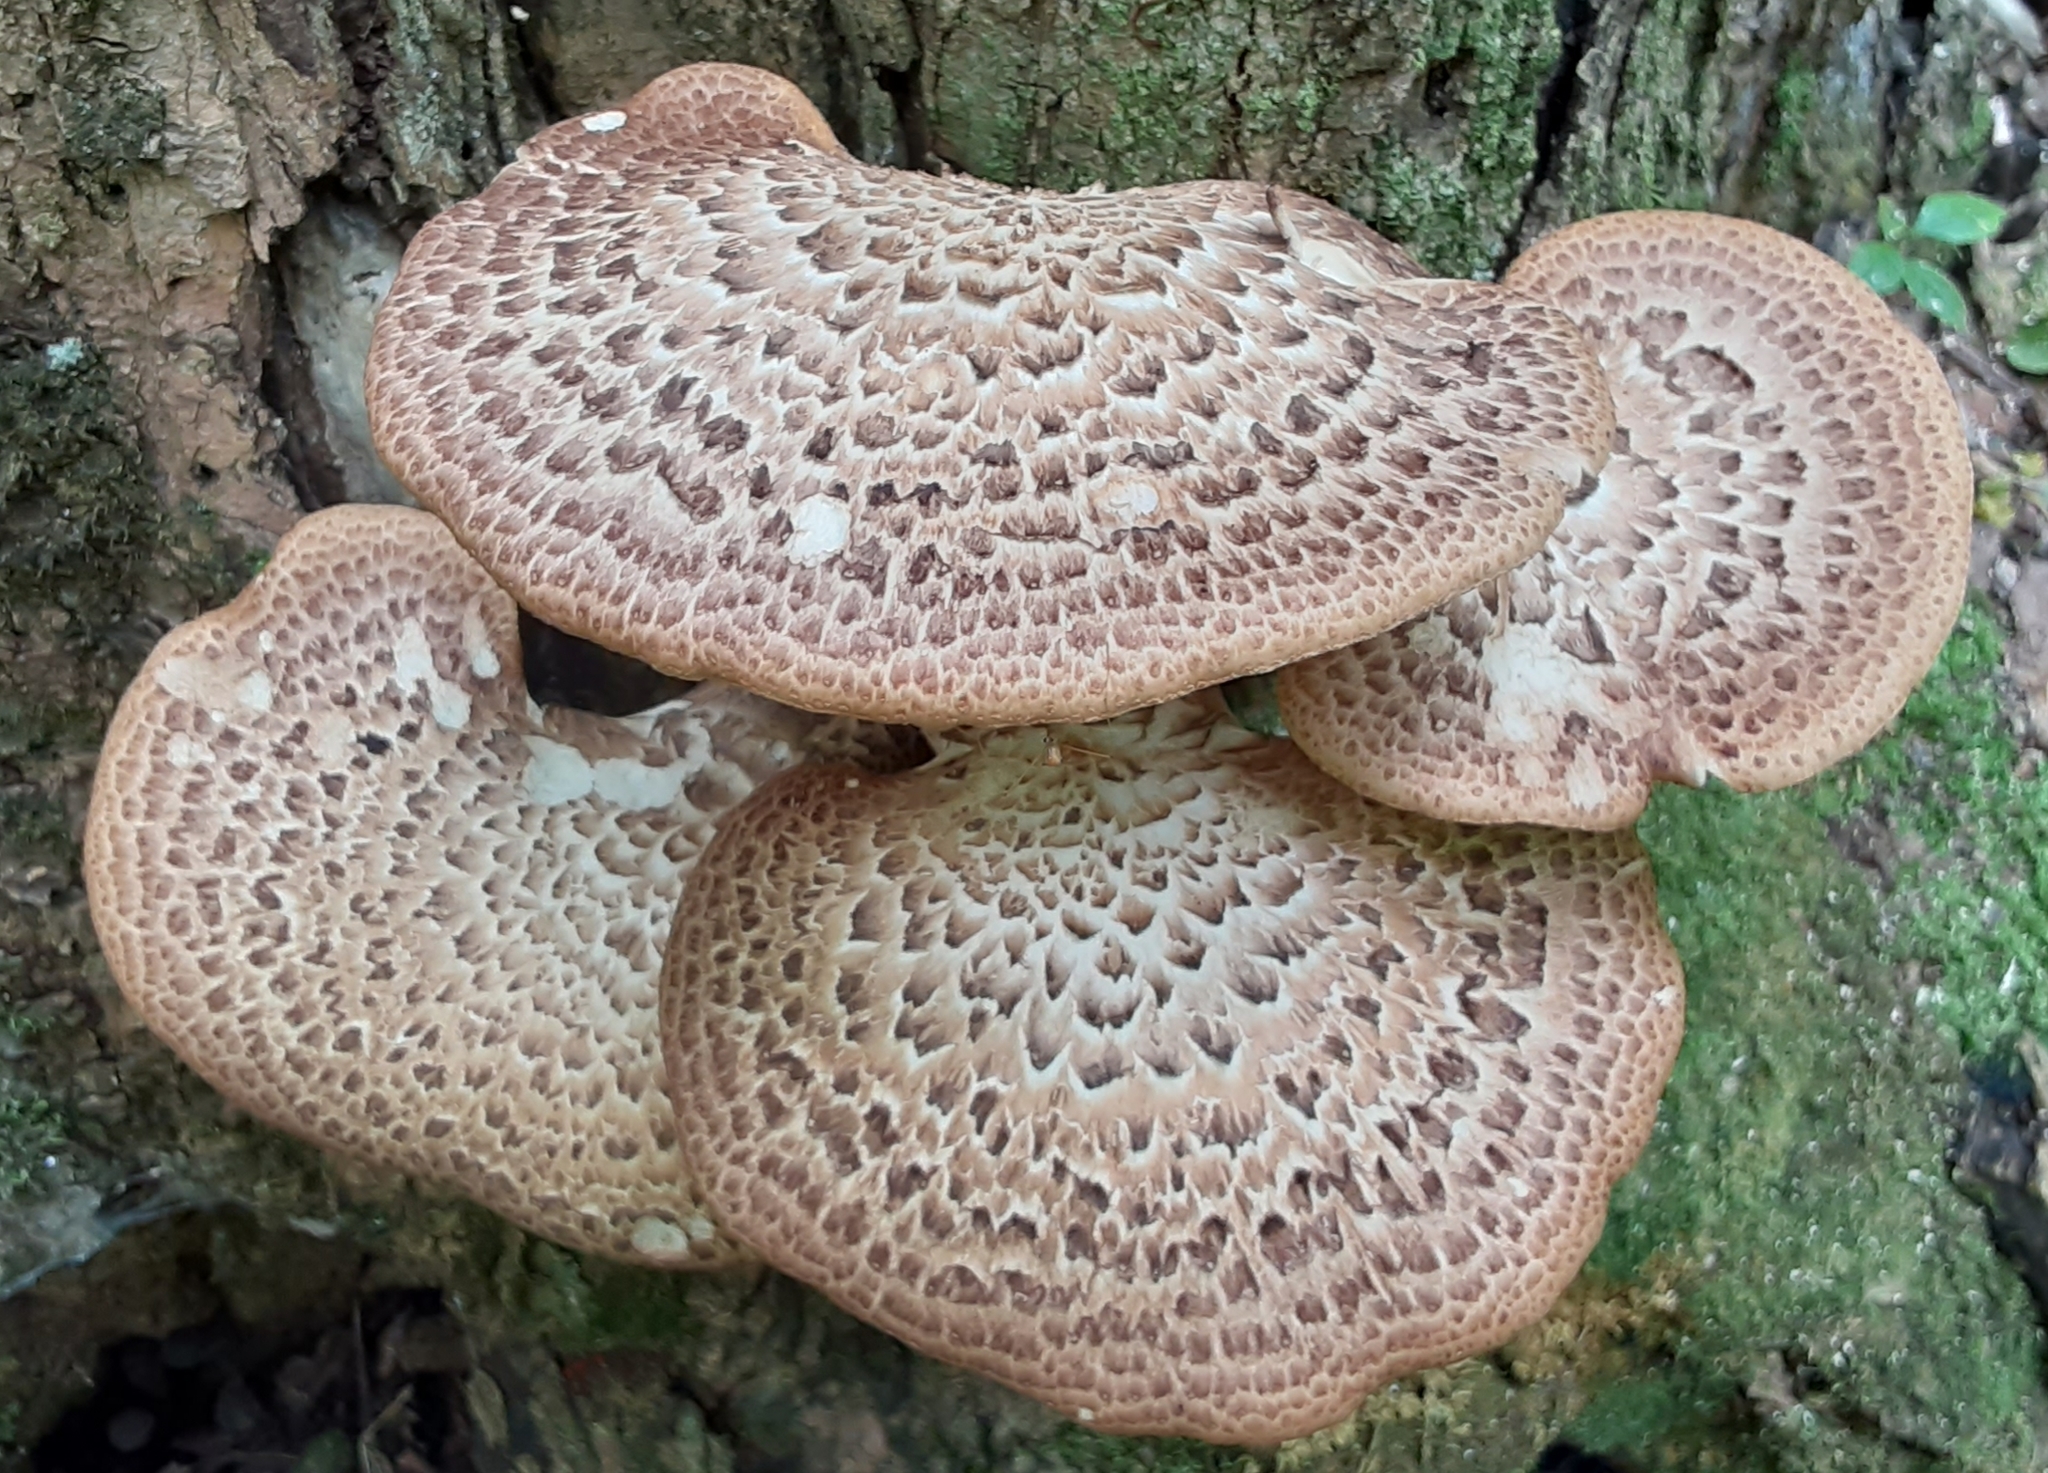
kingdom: Fungi
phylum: Basidiomycota
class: Agaricomycetes
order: Polyporales
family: Polyporaceae
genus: Cerioporus
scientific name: Cerioporus squamosus
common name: Dryad's saddle
